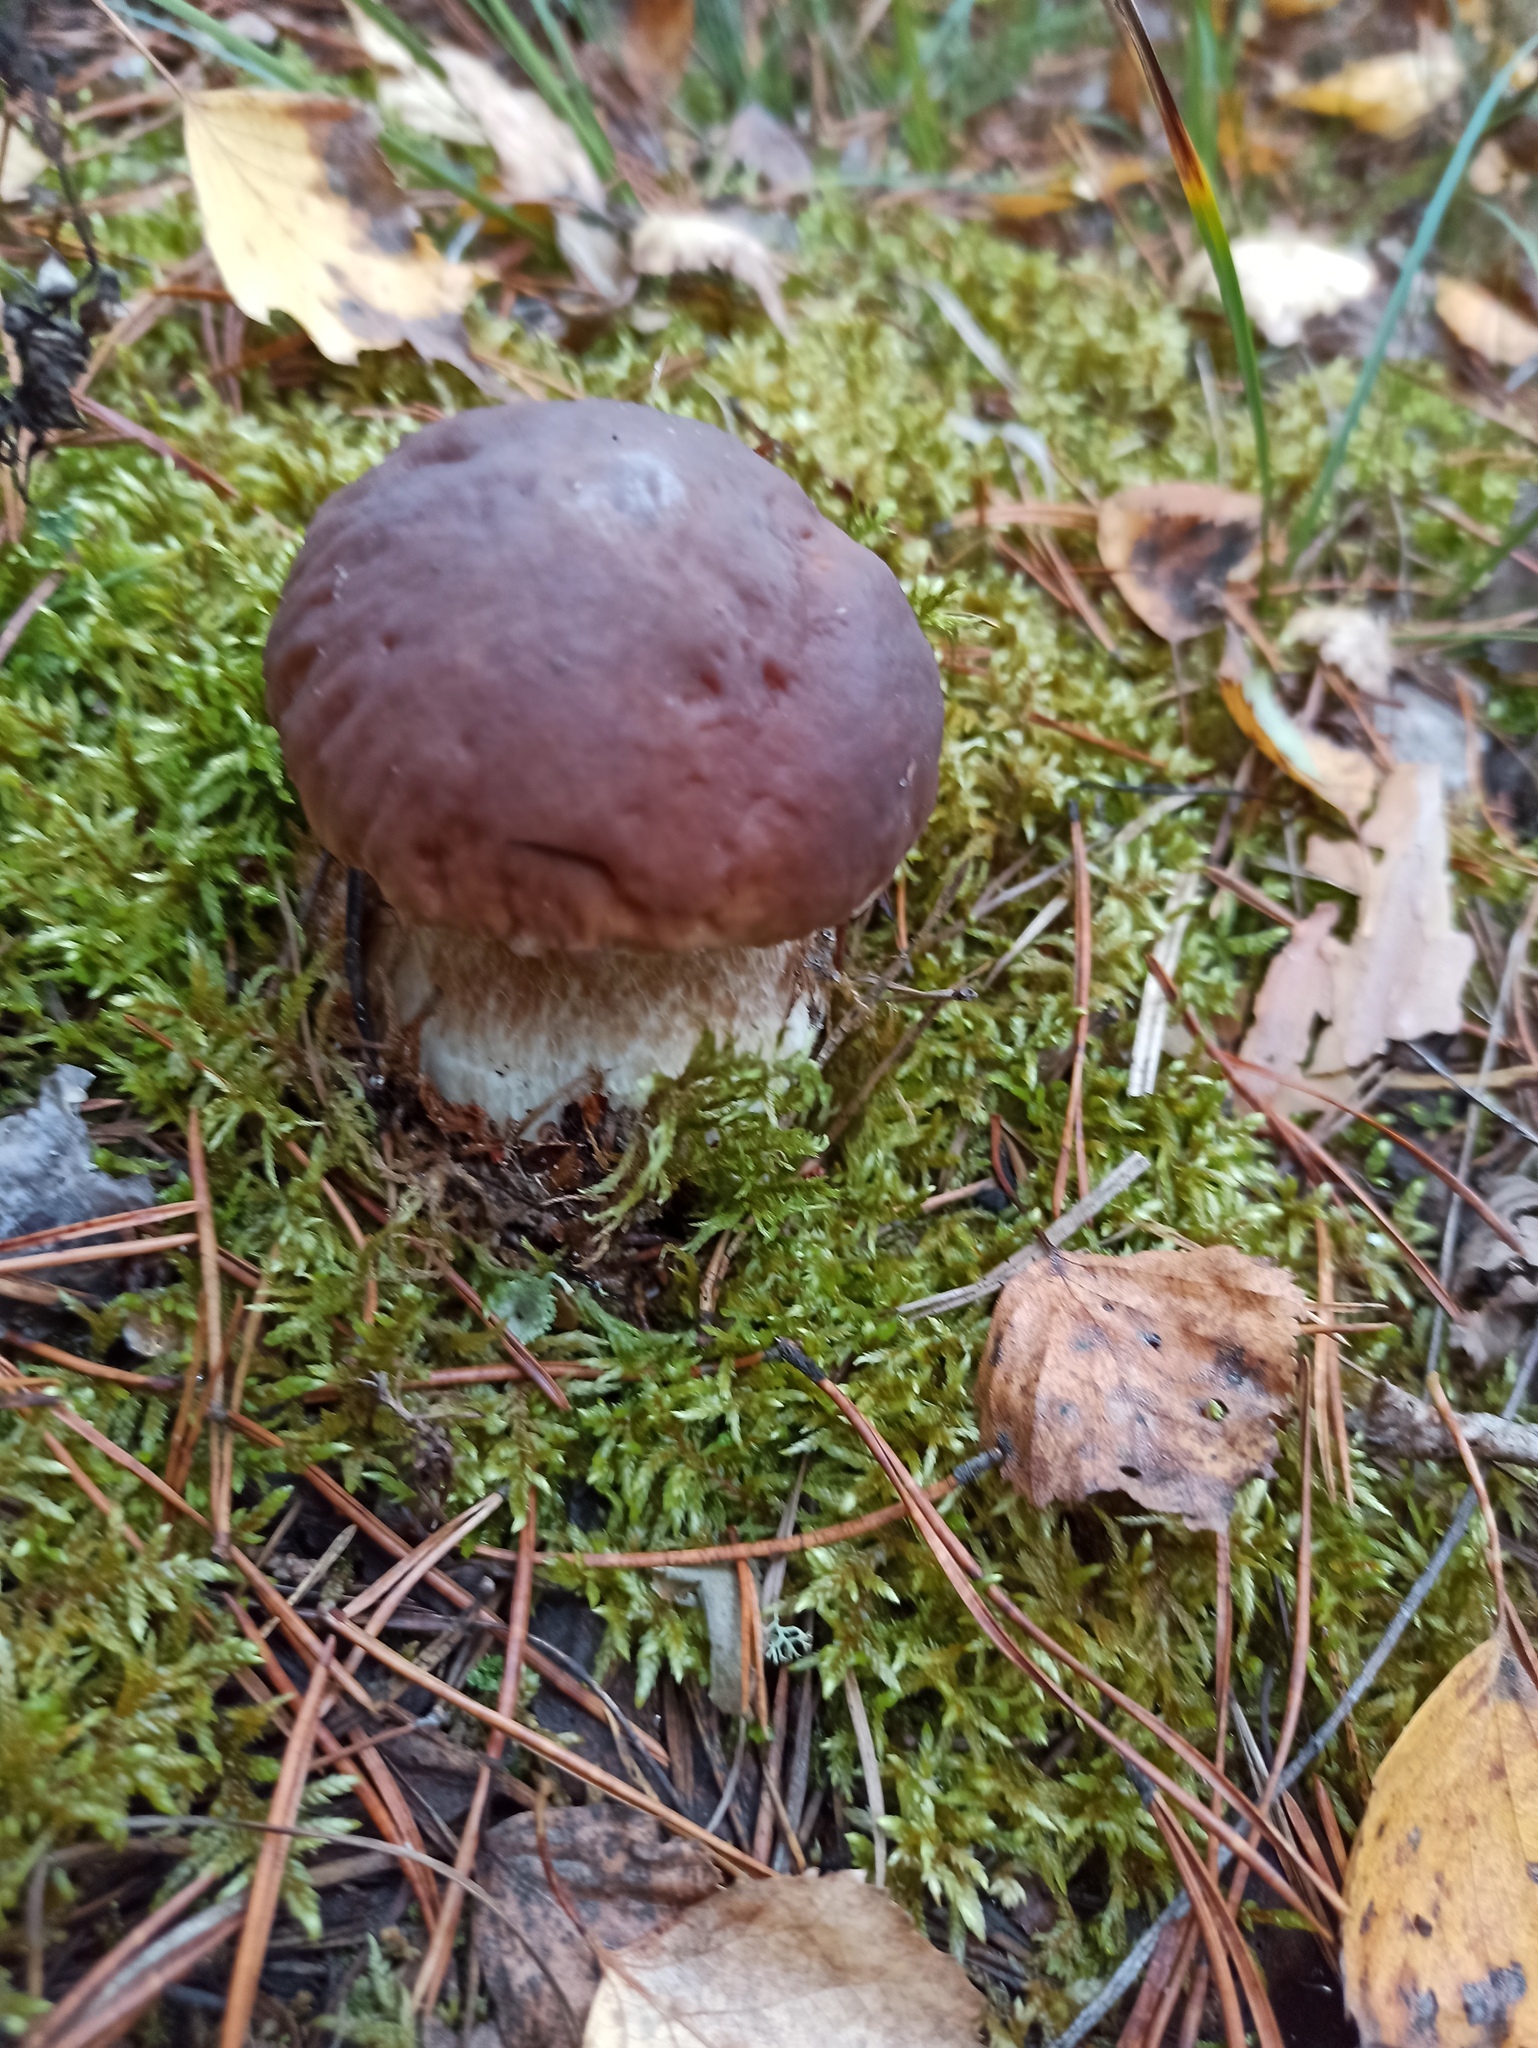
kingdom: Fungi
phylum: Basidiomycota
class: Agaricomycetes
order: Boletales
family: Boletaceae
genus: Boletus
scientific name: Boletus edulis
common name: Cep
